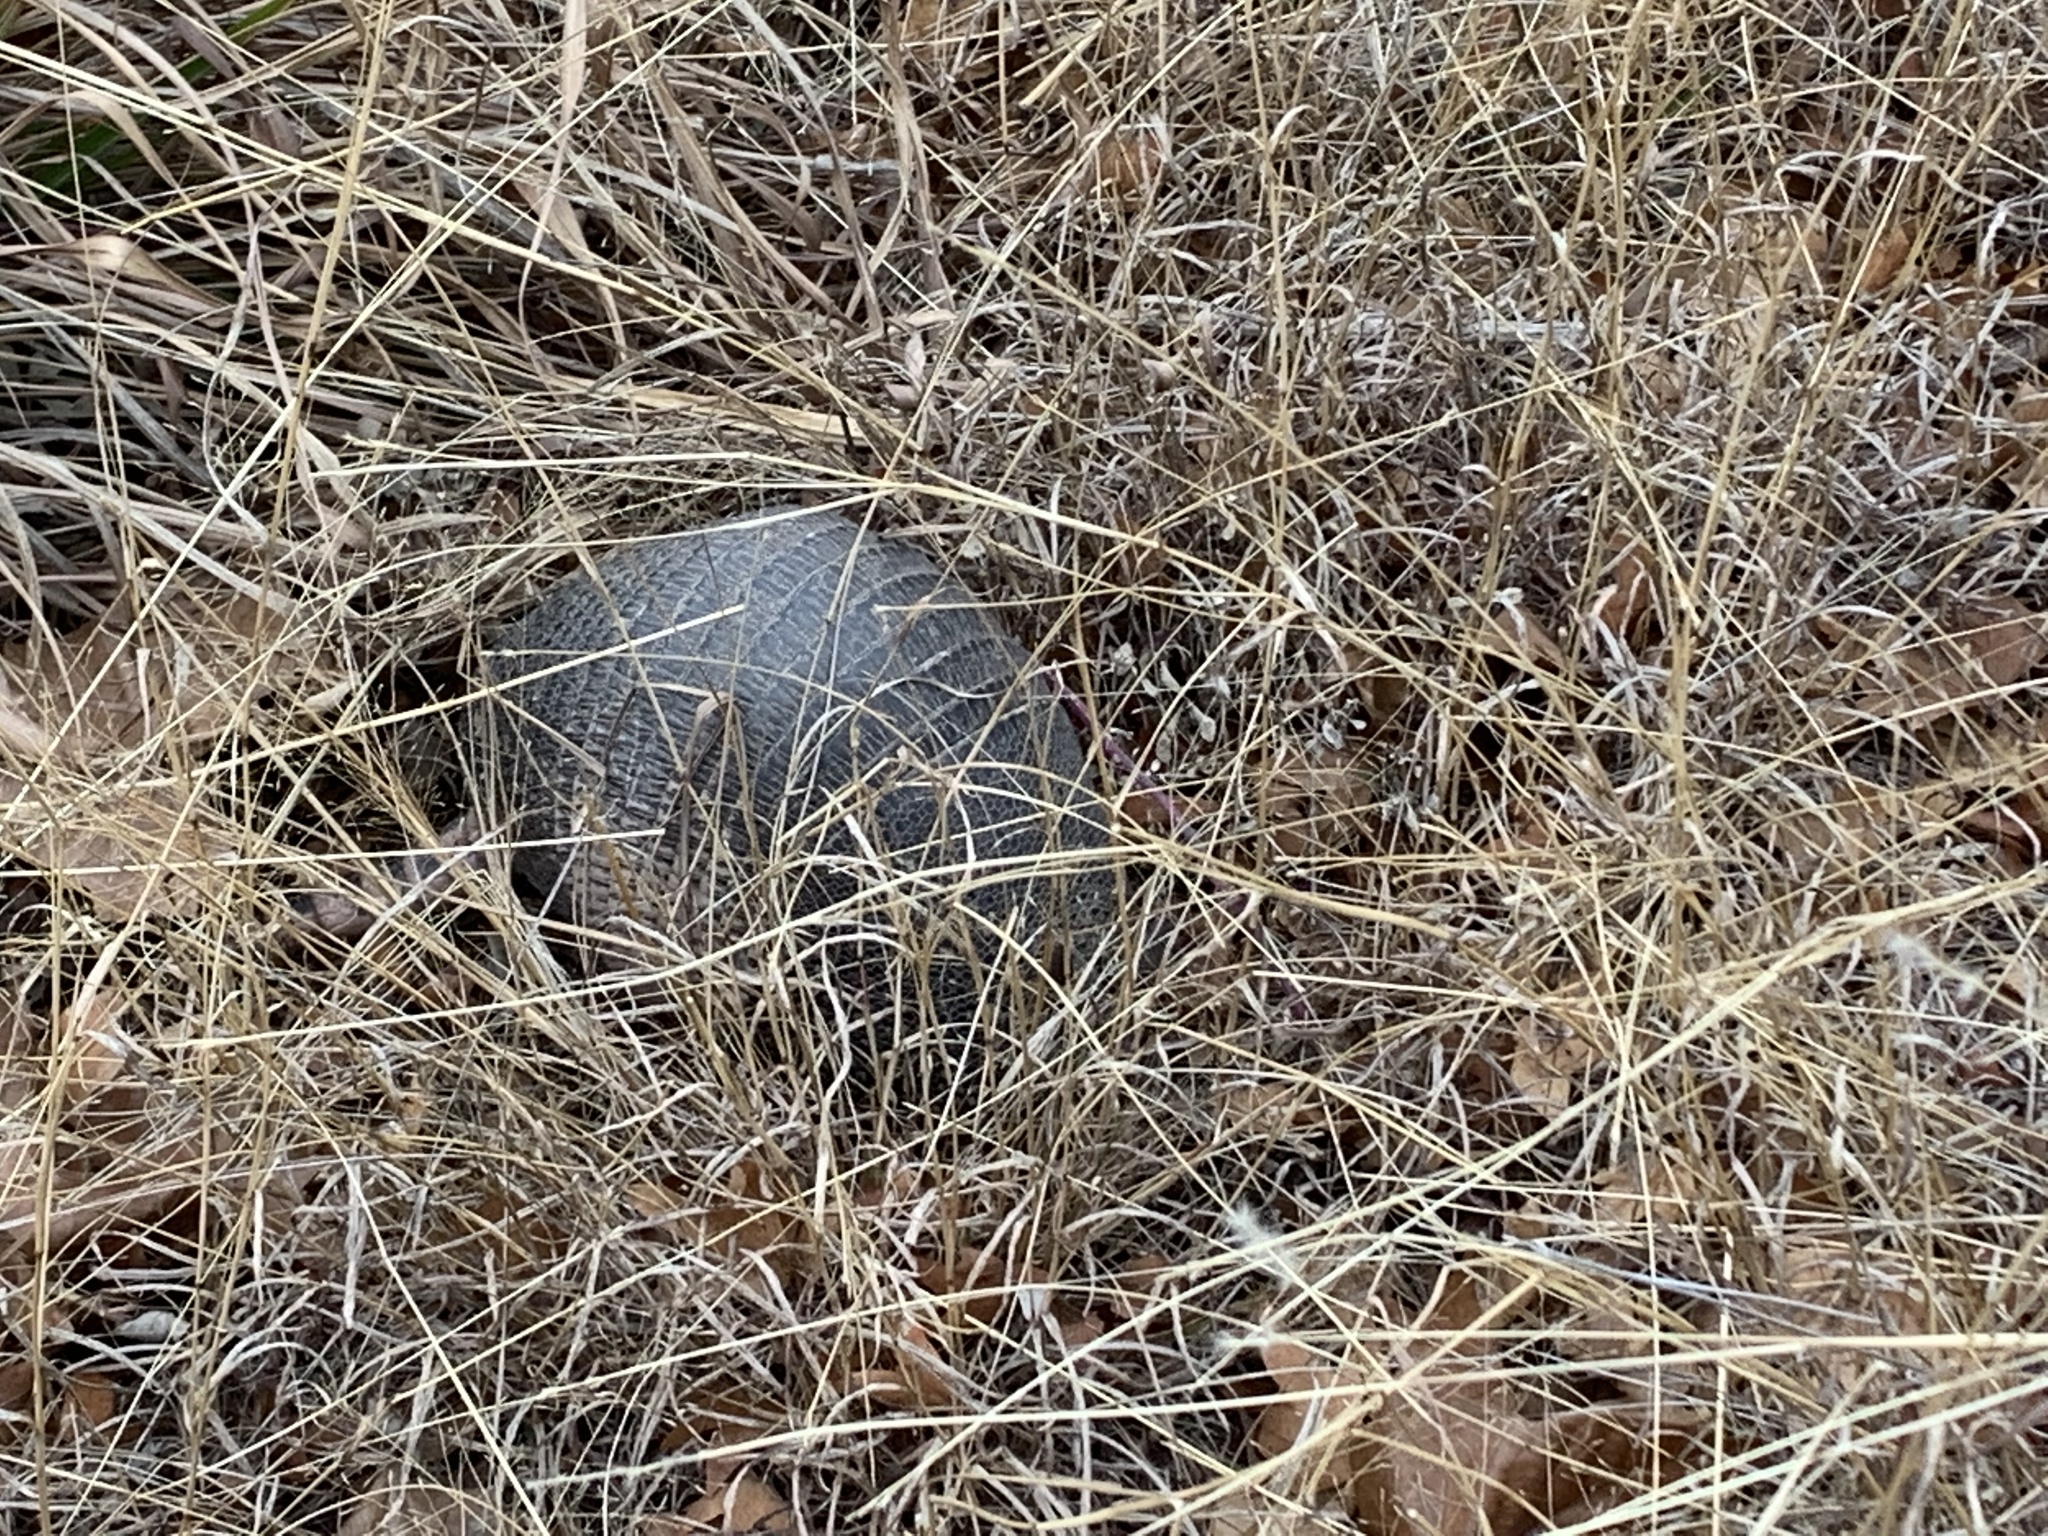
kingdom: Animalia
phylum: Chordata
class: Mammalia
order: Cingulata
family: Dasypodidae
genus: Dasypus
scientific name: Dasypus novemcinctus
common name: Nine-banded armadillo
